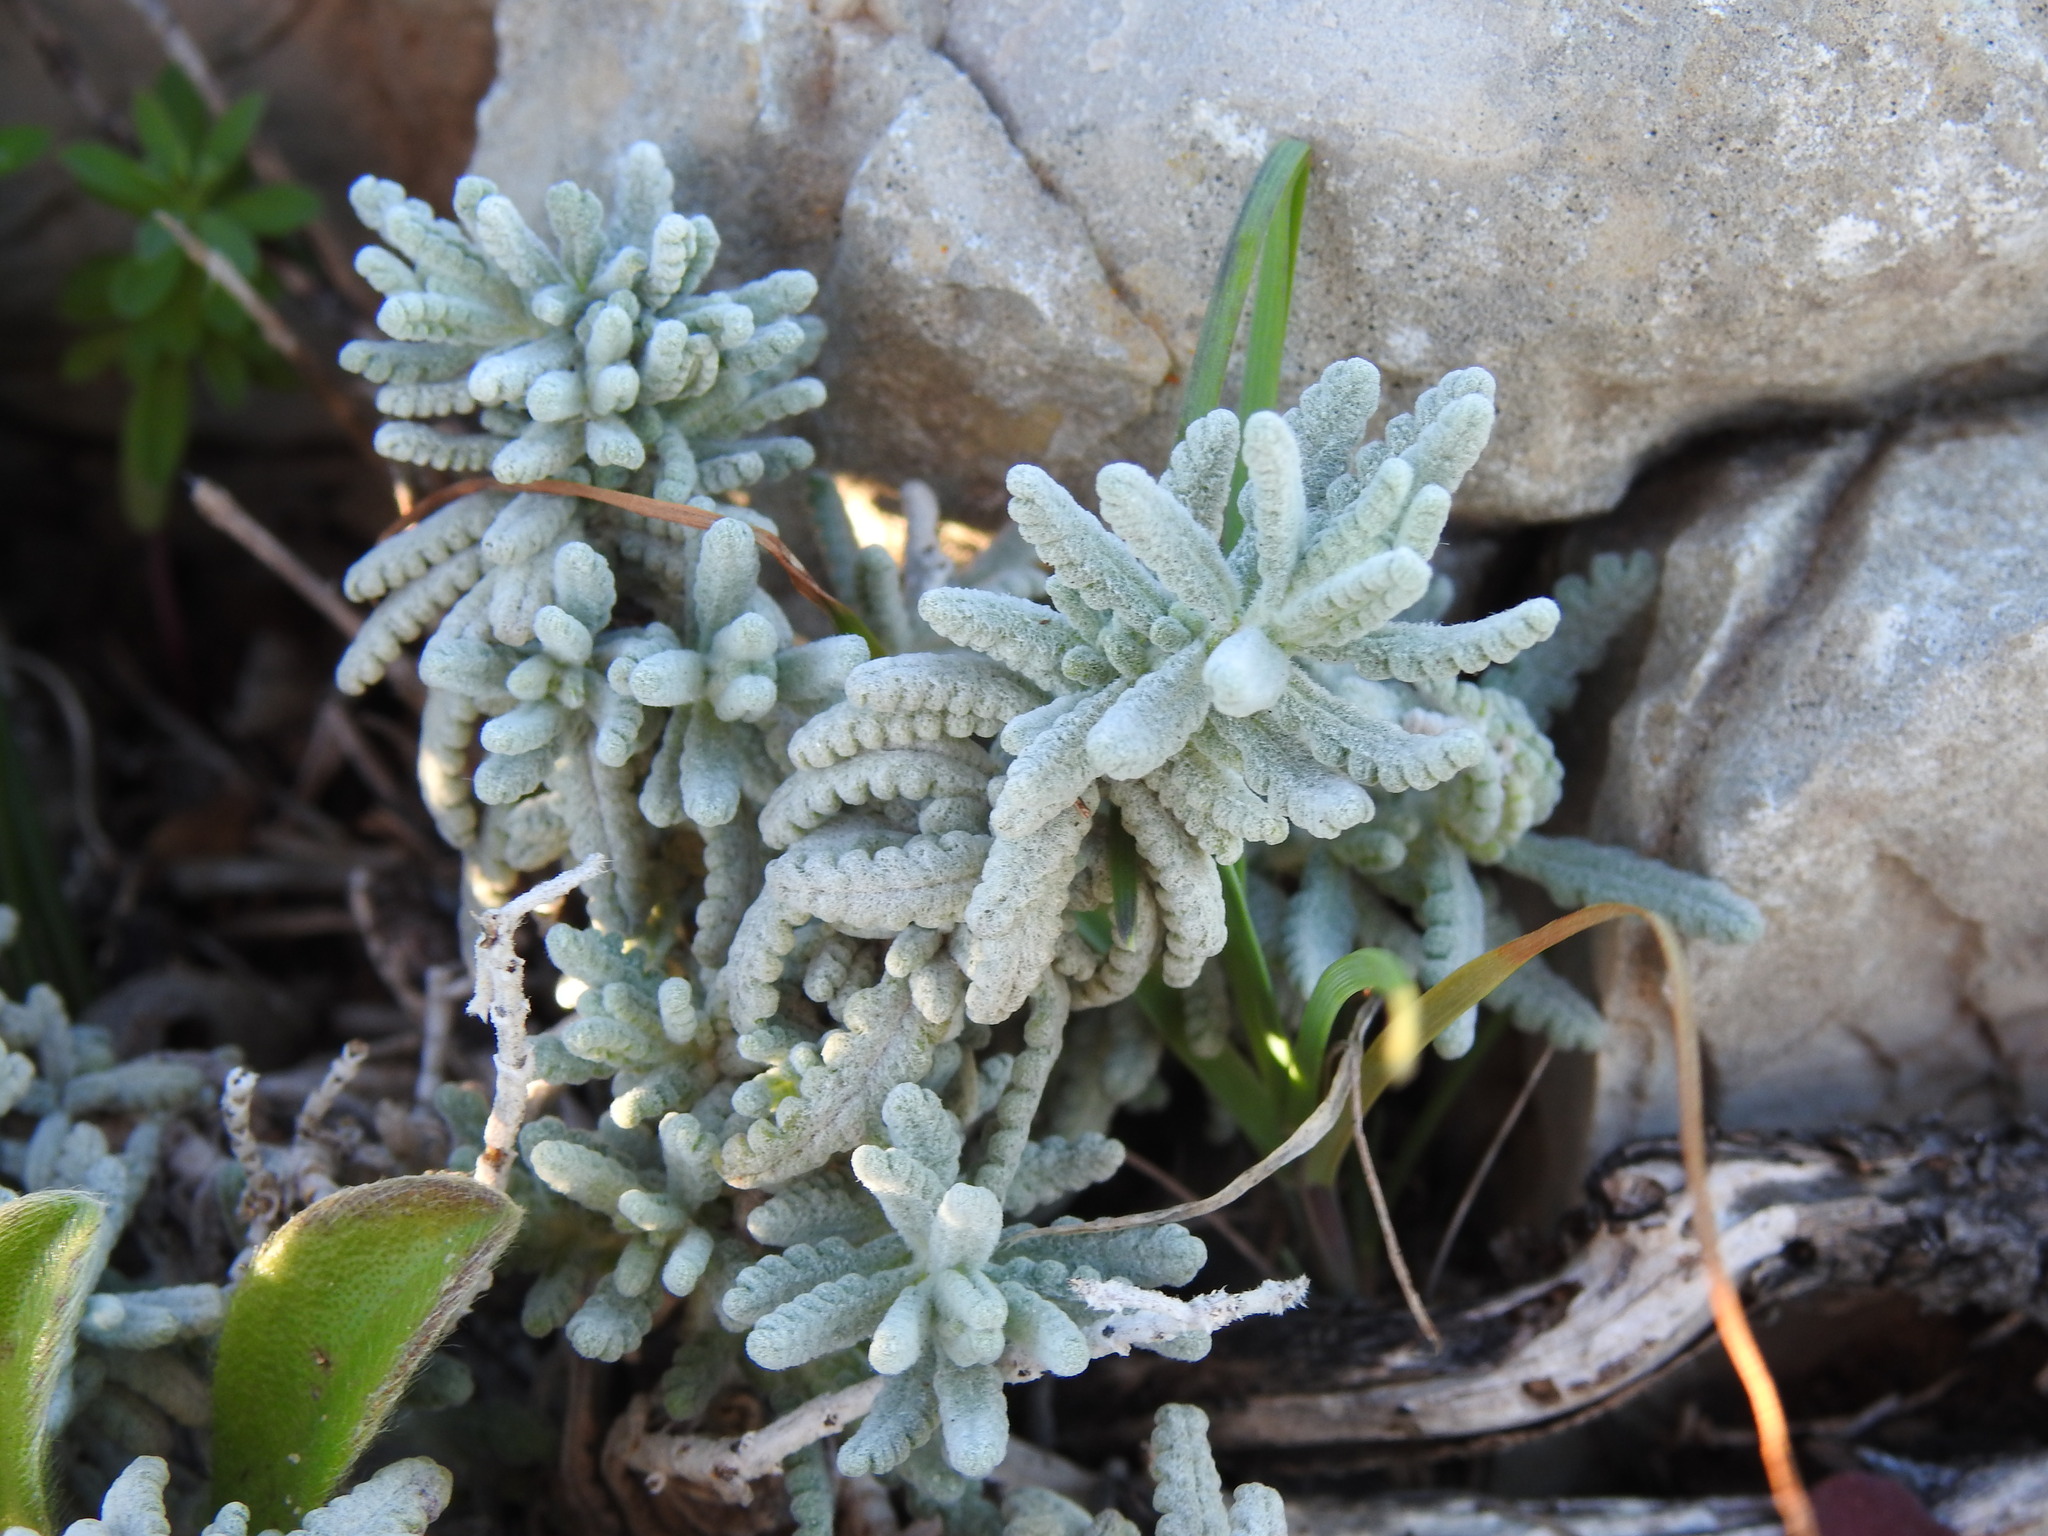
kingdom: Plantae
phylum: Tracheophyta
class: Magnoliopsida
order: Lamiales
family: Lamiaceae
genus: Teucrium
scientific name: Teucrium vincentinum
